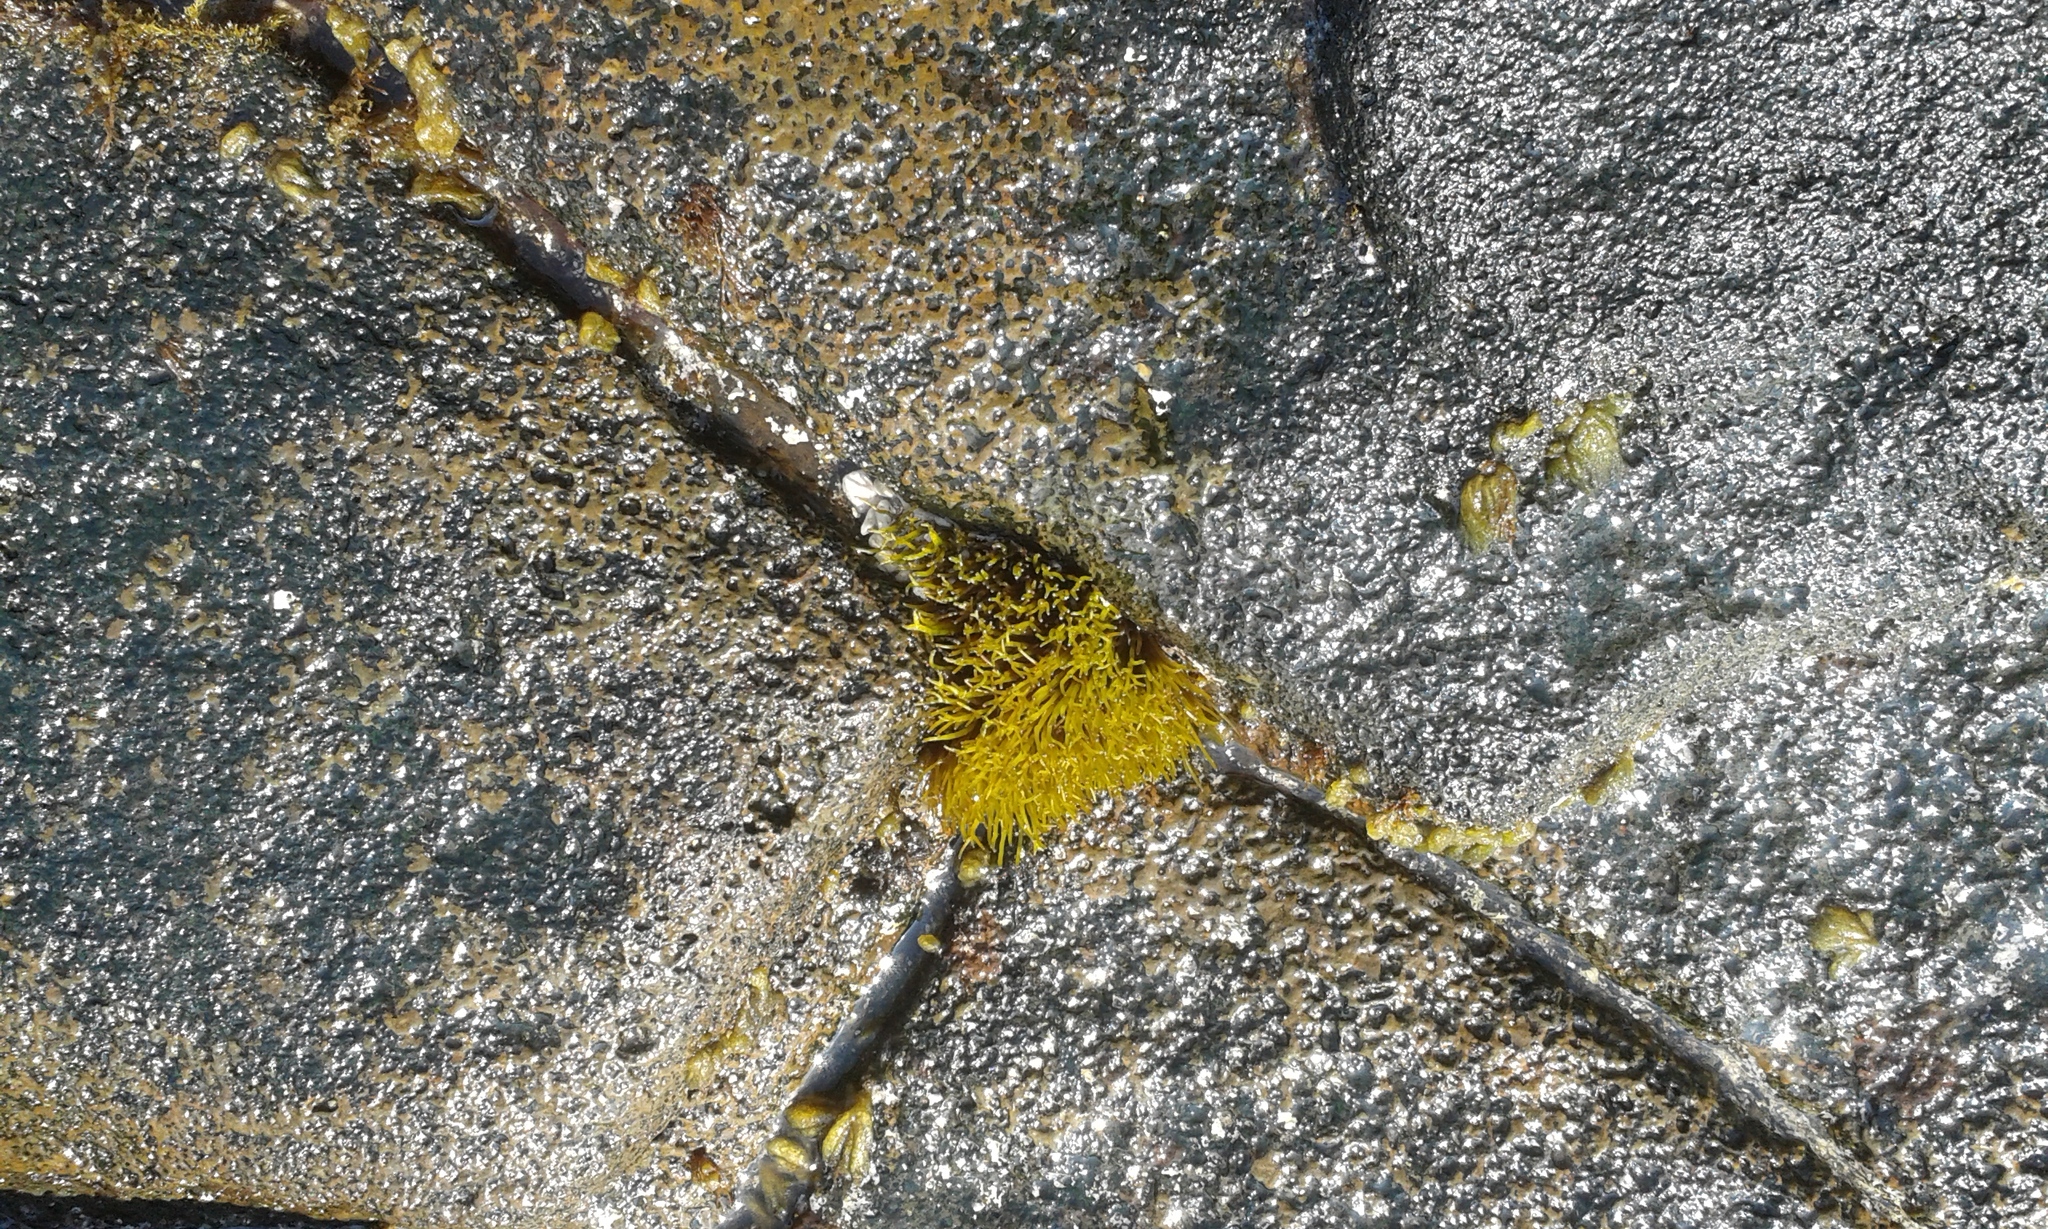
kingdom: Plantae
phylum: Rhodophyta
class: Florideophyceae
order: Gigartinales
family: Phyllophoraceae
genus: Gymnogongrus
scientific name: Gymnogongrus durvillei
